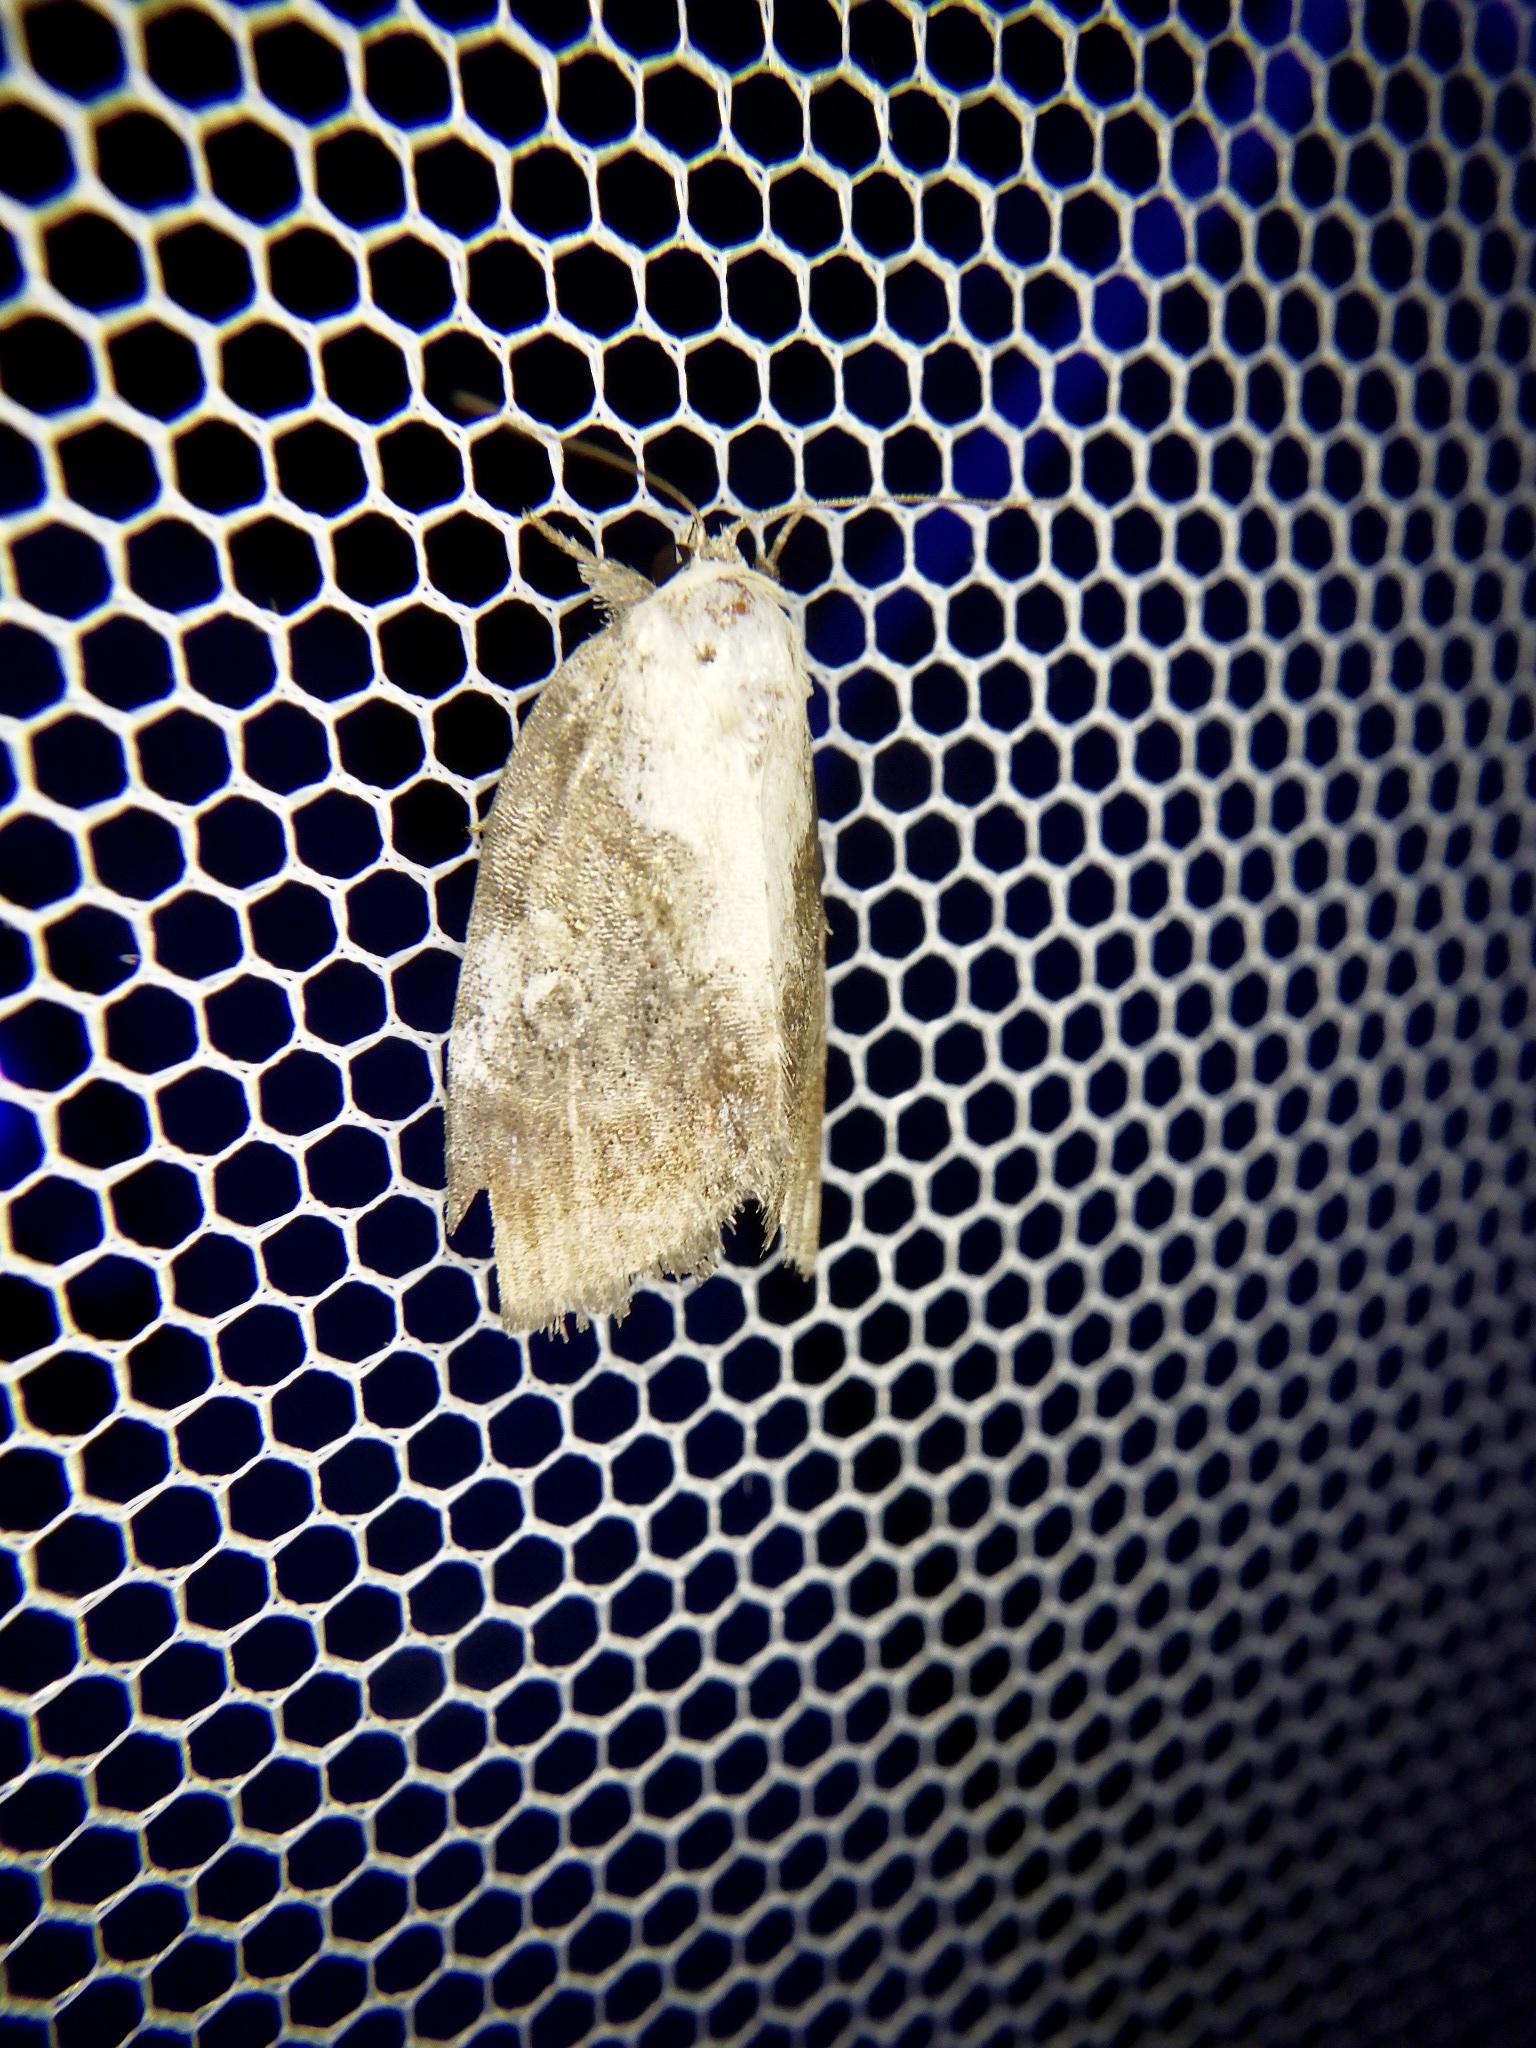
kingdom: Animalia
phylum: Arthropoda
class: Insecta
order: Lepidoptera
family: Nolidae
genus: Negritothripa
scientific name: Negritothripa hampsoni
